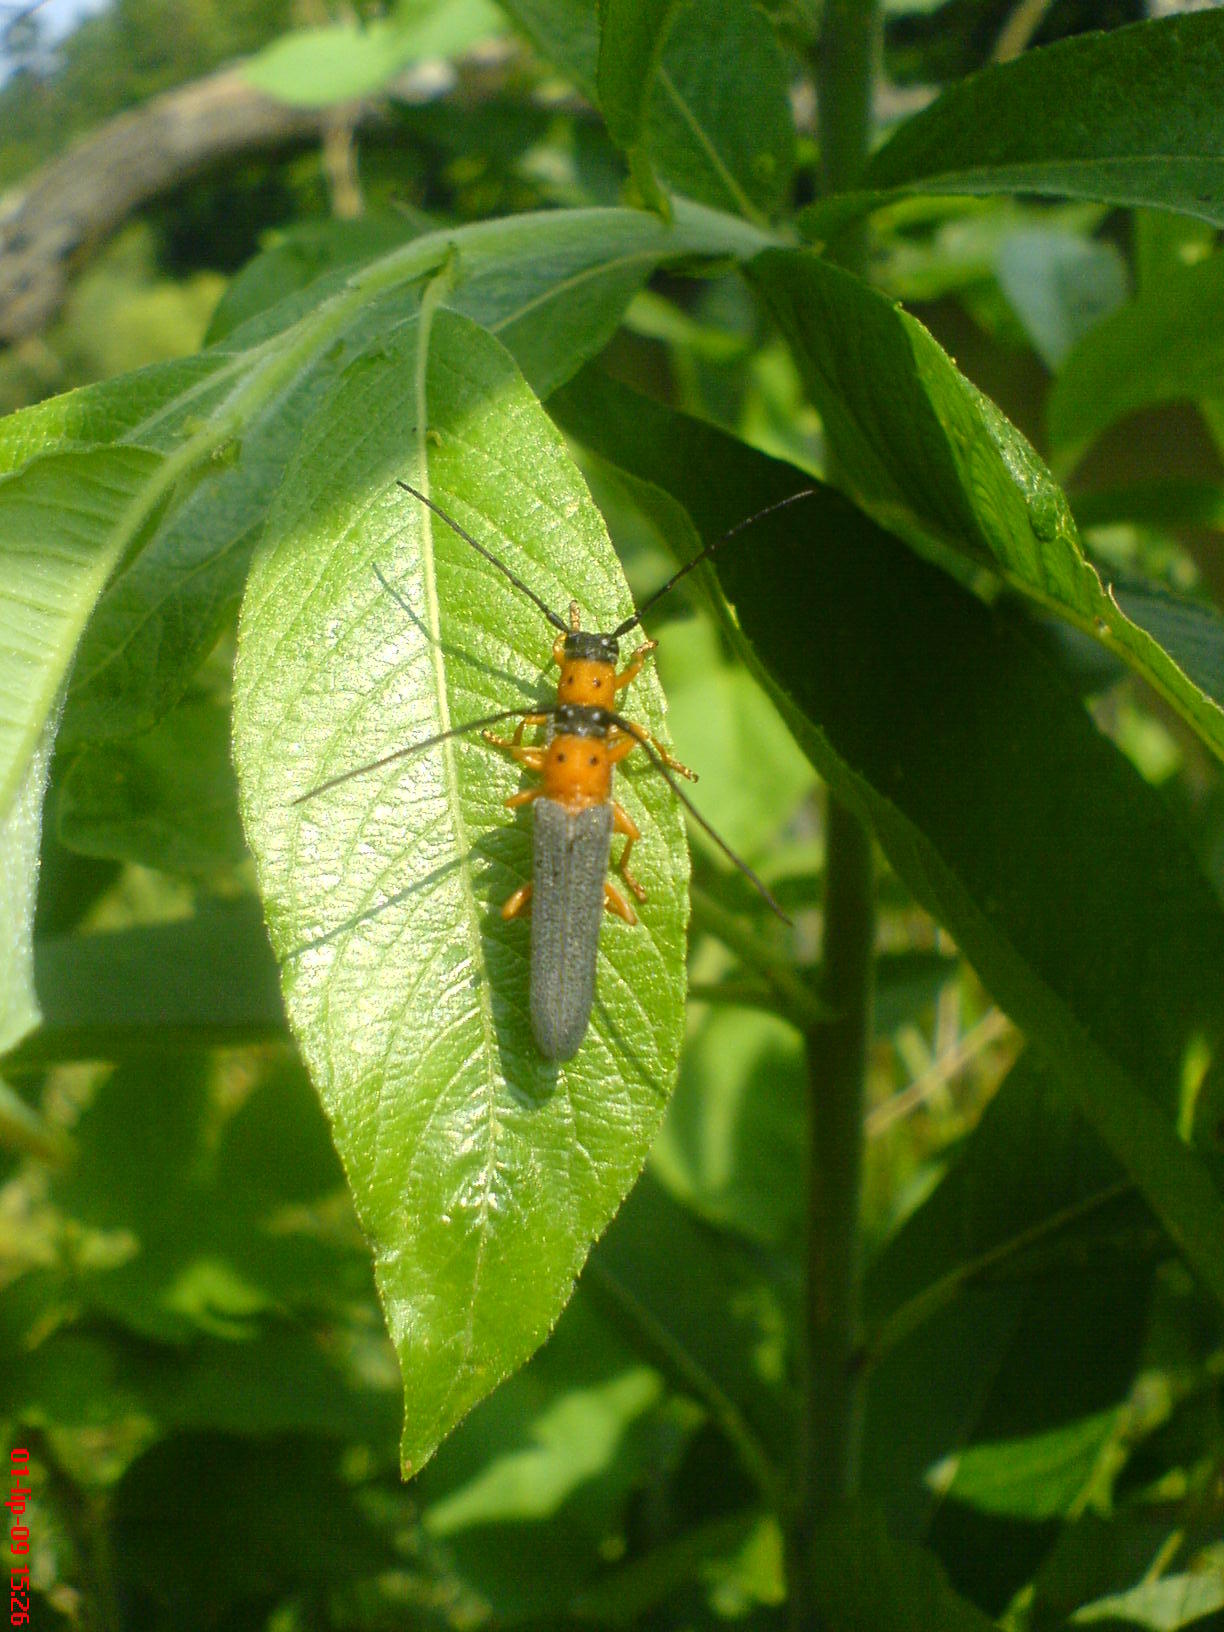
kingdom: Animalia
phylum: Arthropoda
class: Insecta
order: Coleoptera
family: Cerambycidae
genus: Oberea
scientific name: Oberea oculata
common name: Eyed longhorn beetle
